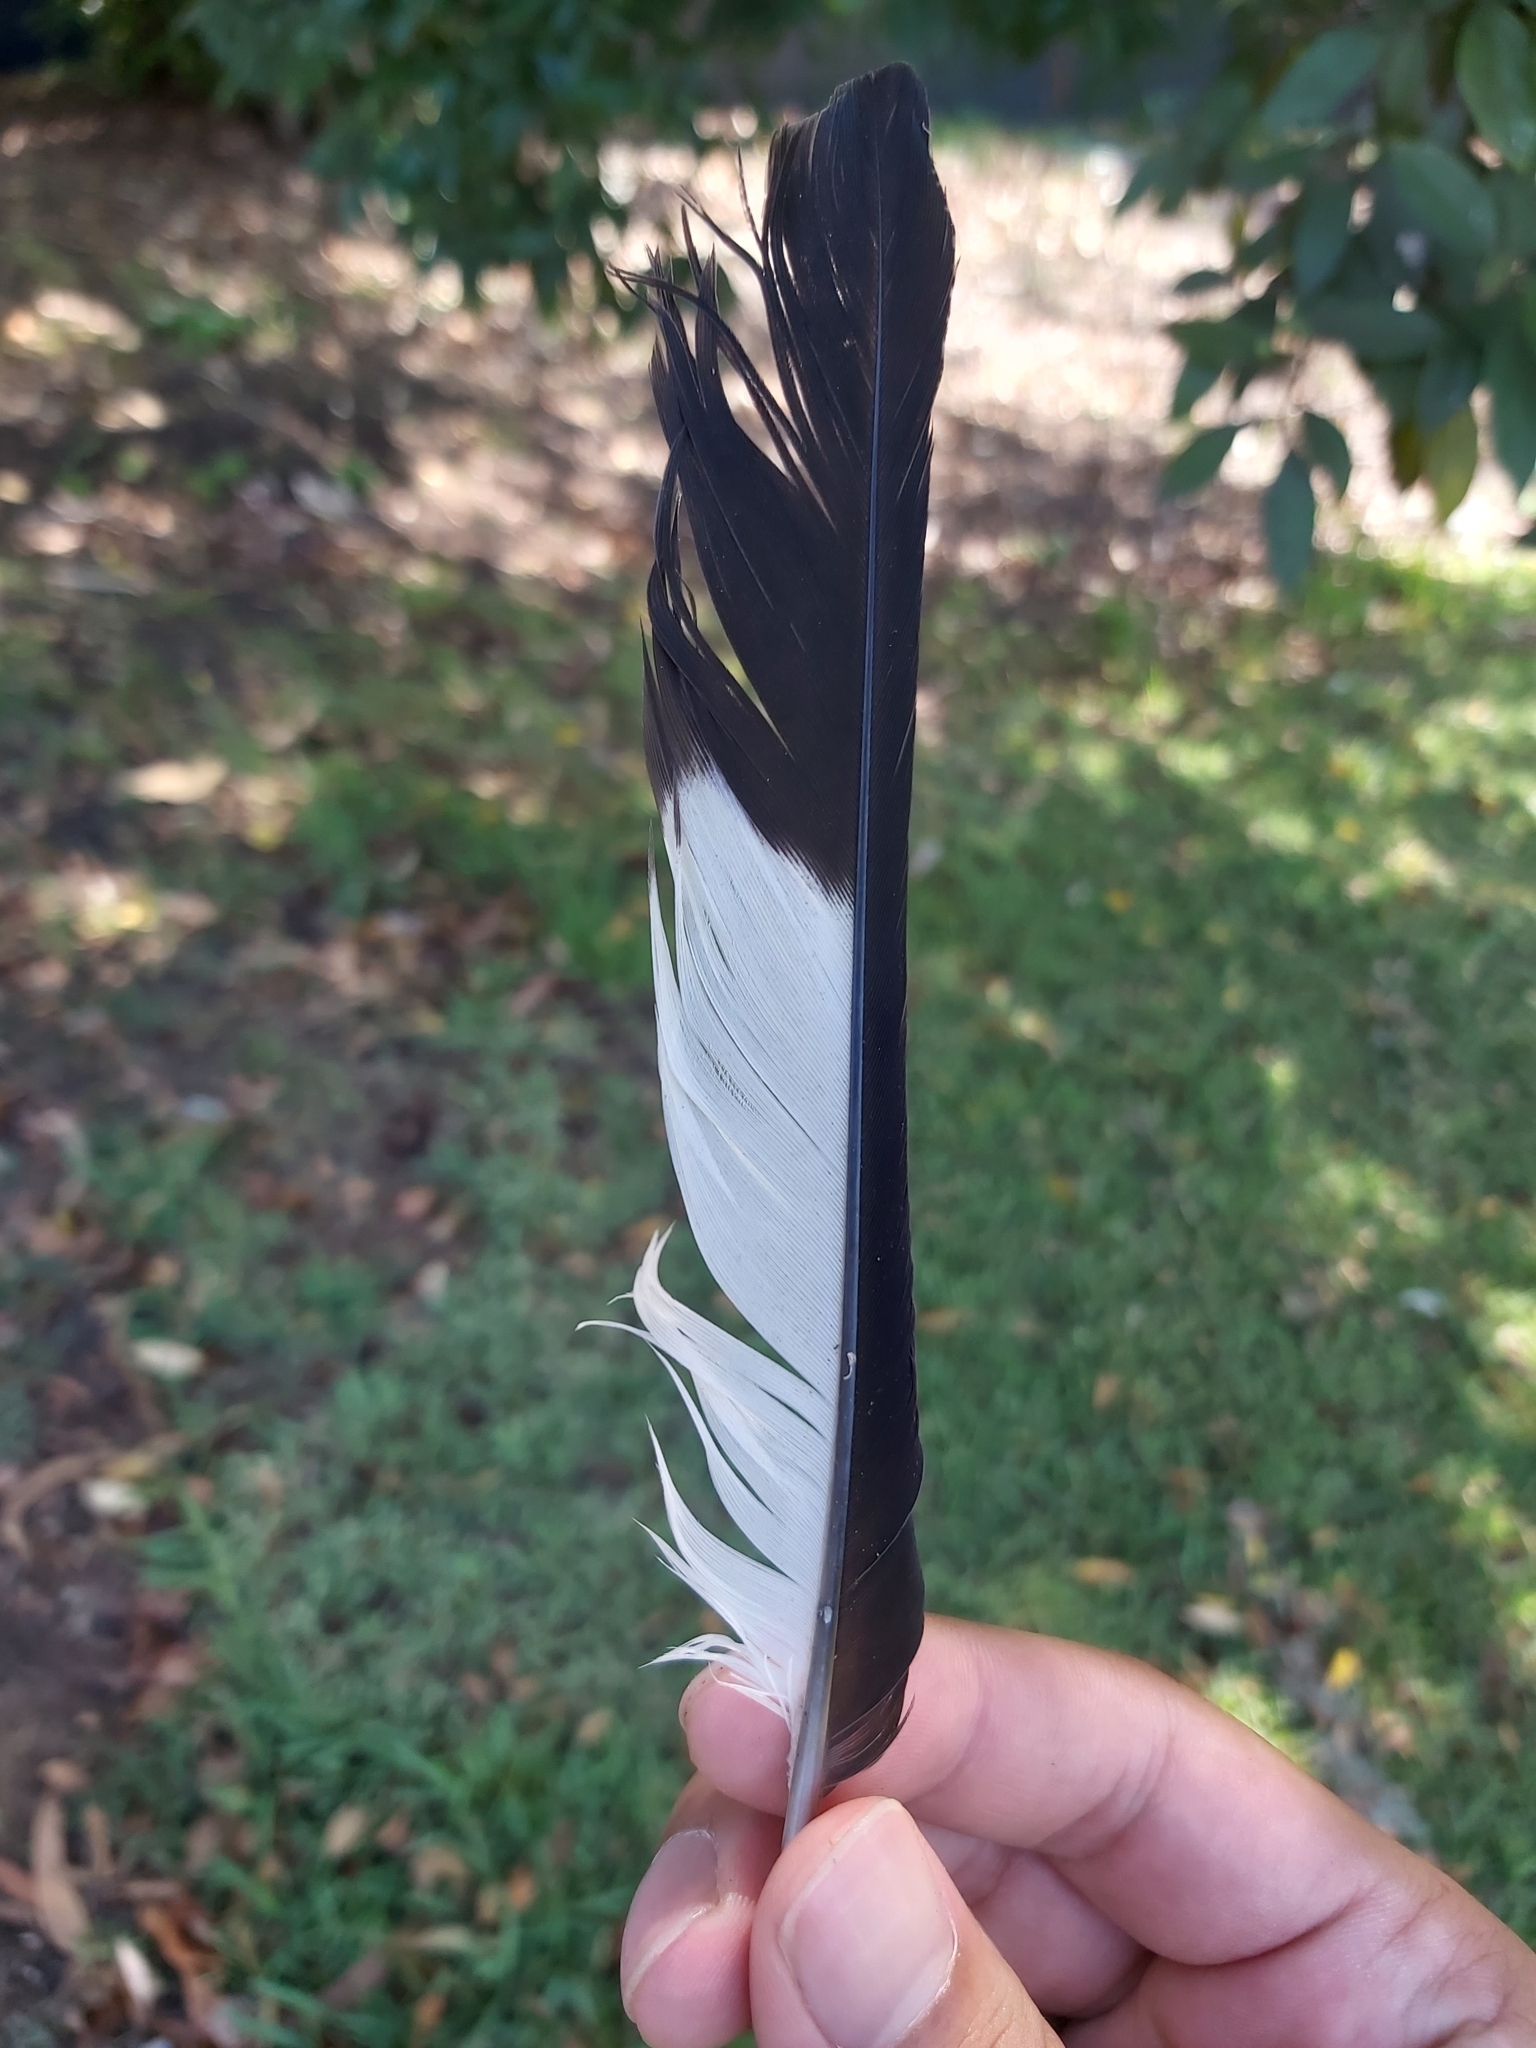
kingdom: Animalia
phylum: Chordata
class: Aves
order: Passeriformes
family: Cracticidae
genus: Gymnorhina
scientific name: Gymnorhina tibicen
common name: Australian magpie
